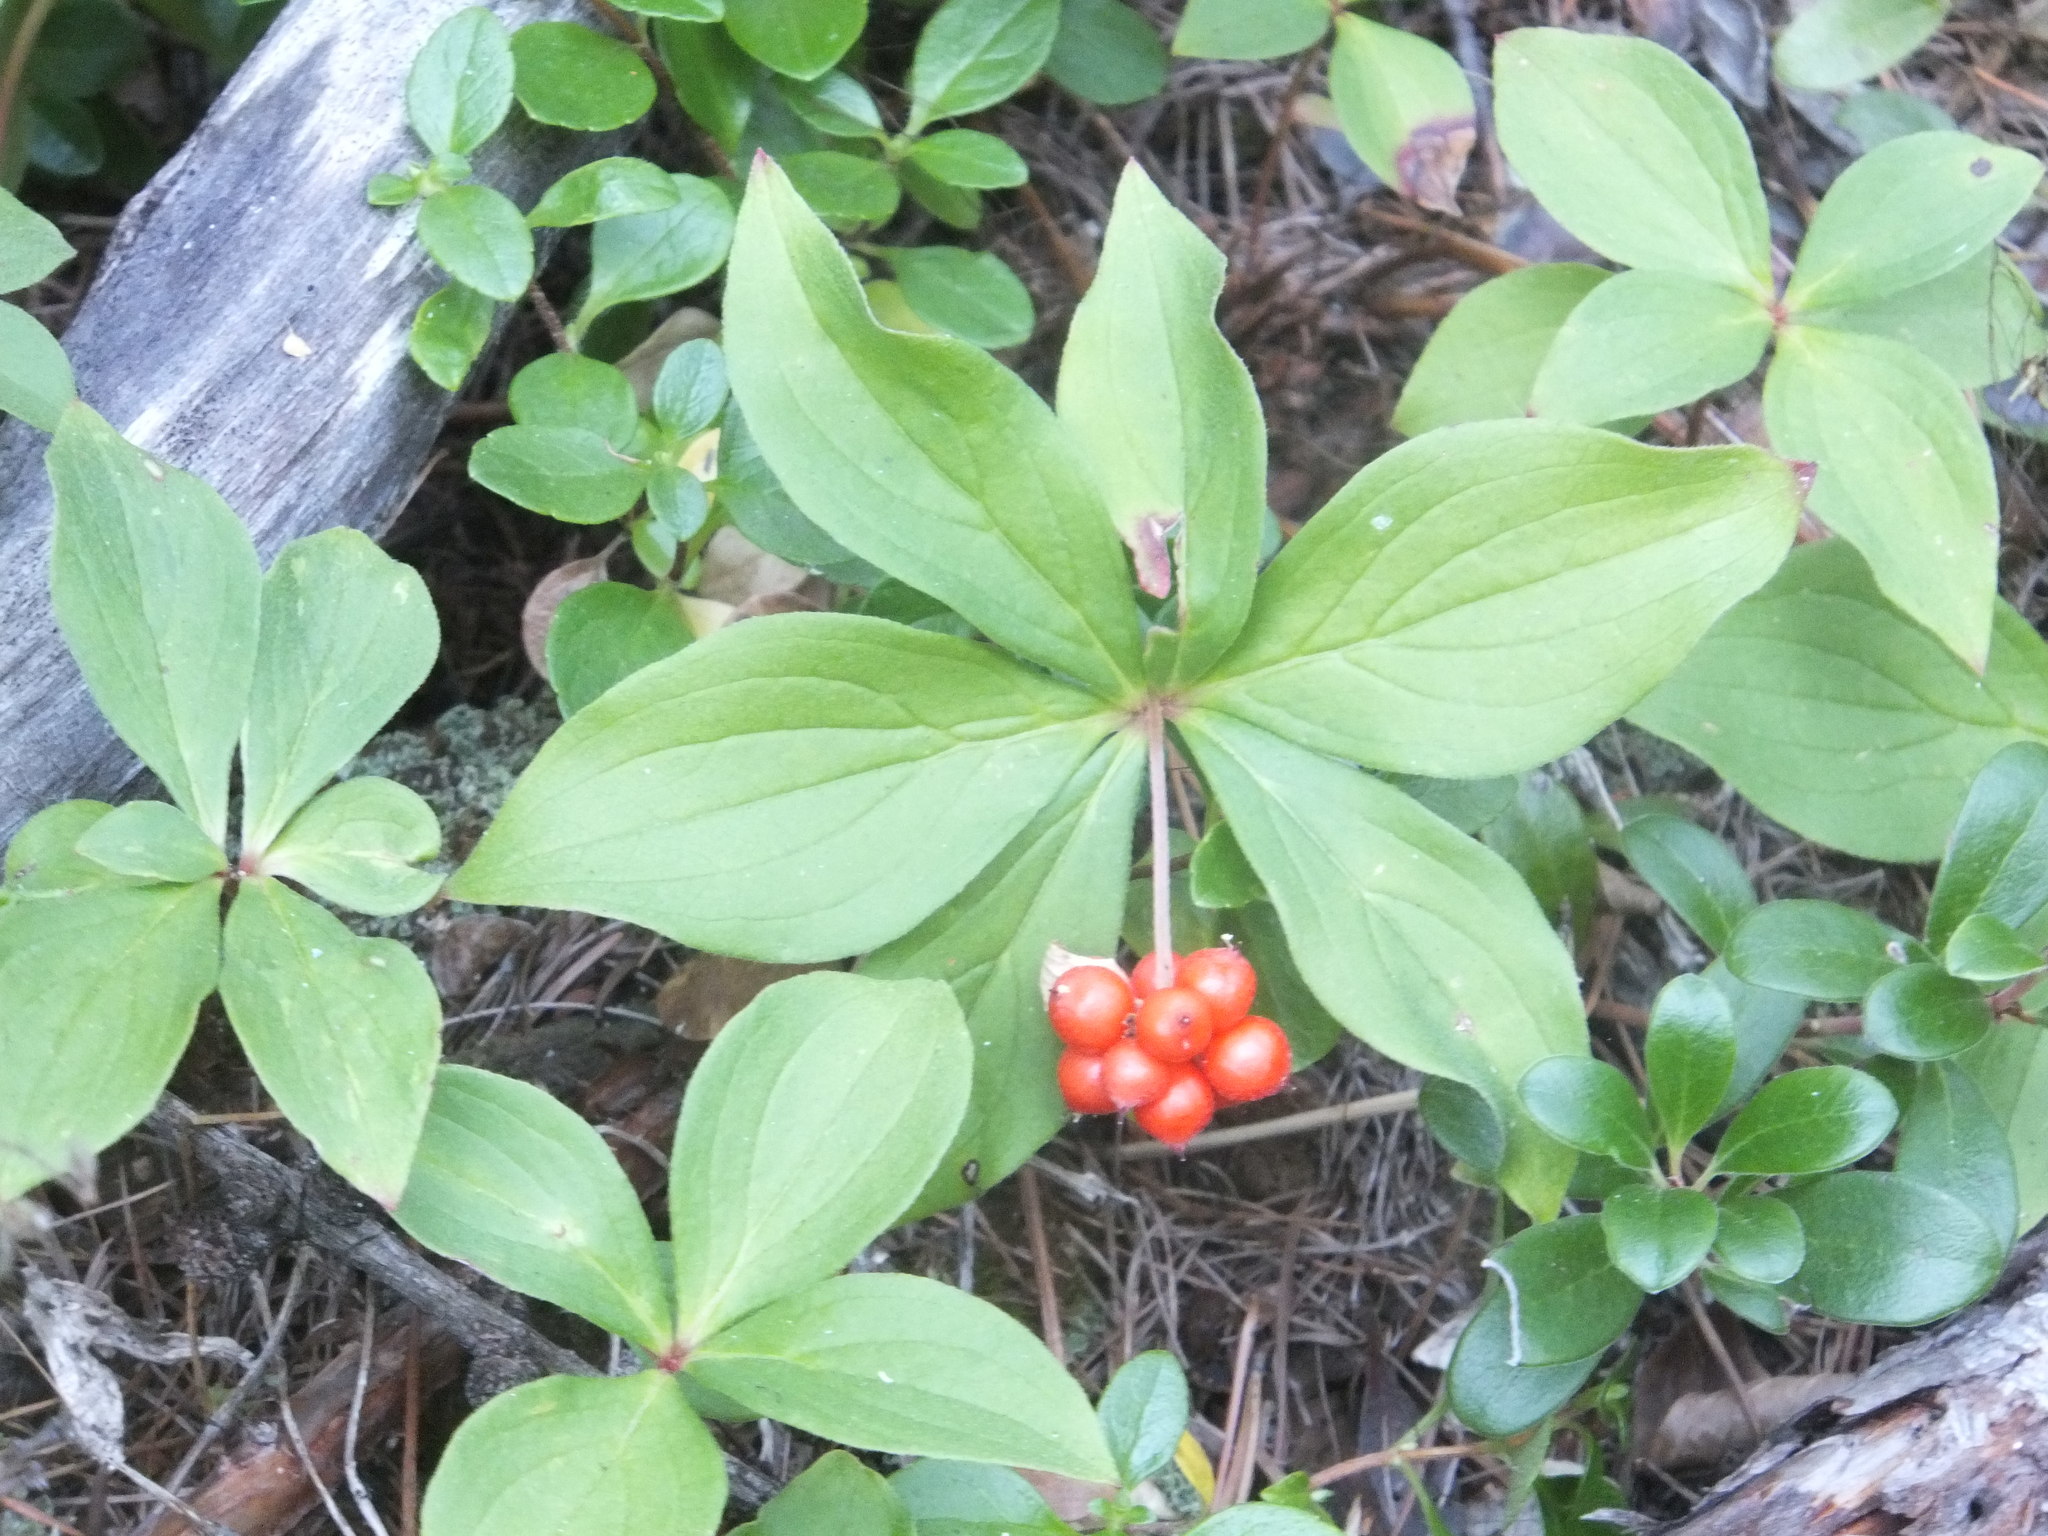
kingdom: Plantae
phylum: Tracheophyta
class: Magnoliopsida
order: Cornales
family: Cornaceae
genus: Cornus
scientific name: Cornus canadensis
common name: Creeping dogwood
